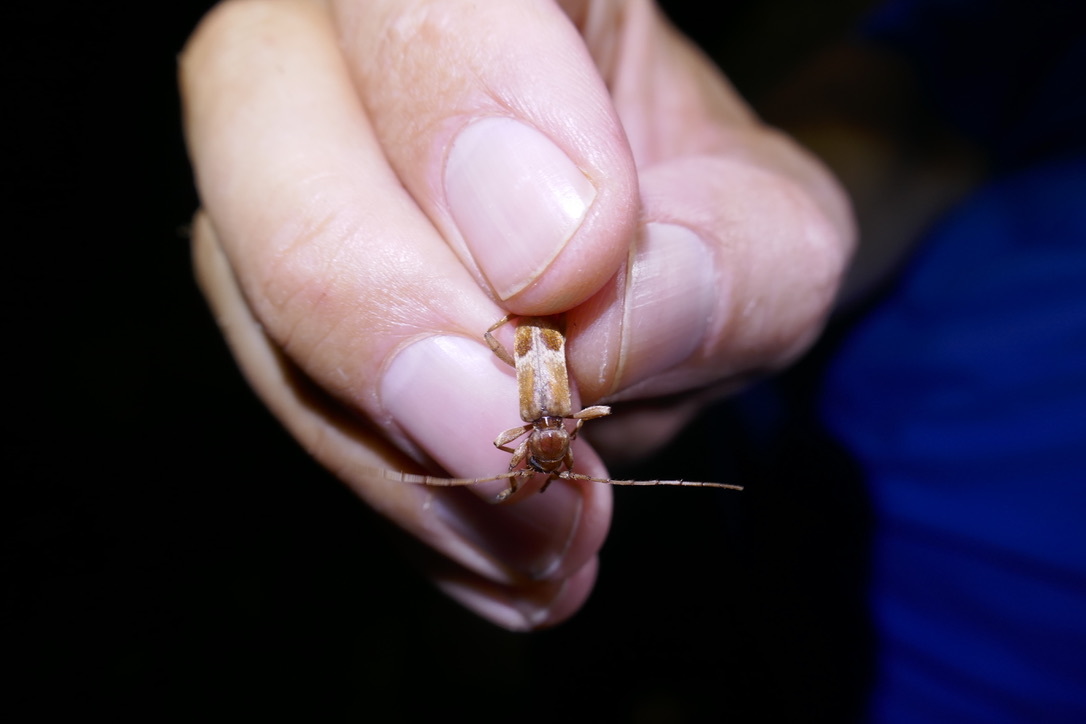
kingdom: Animalia
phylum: Arthropoda
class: Insecta
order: Coleoptera
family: Cerambycidae
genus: Trichoferus
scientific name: Trichoferus pallidus
